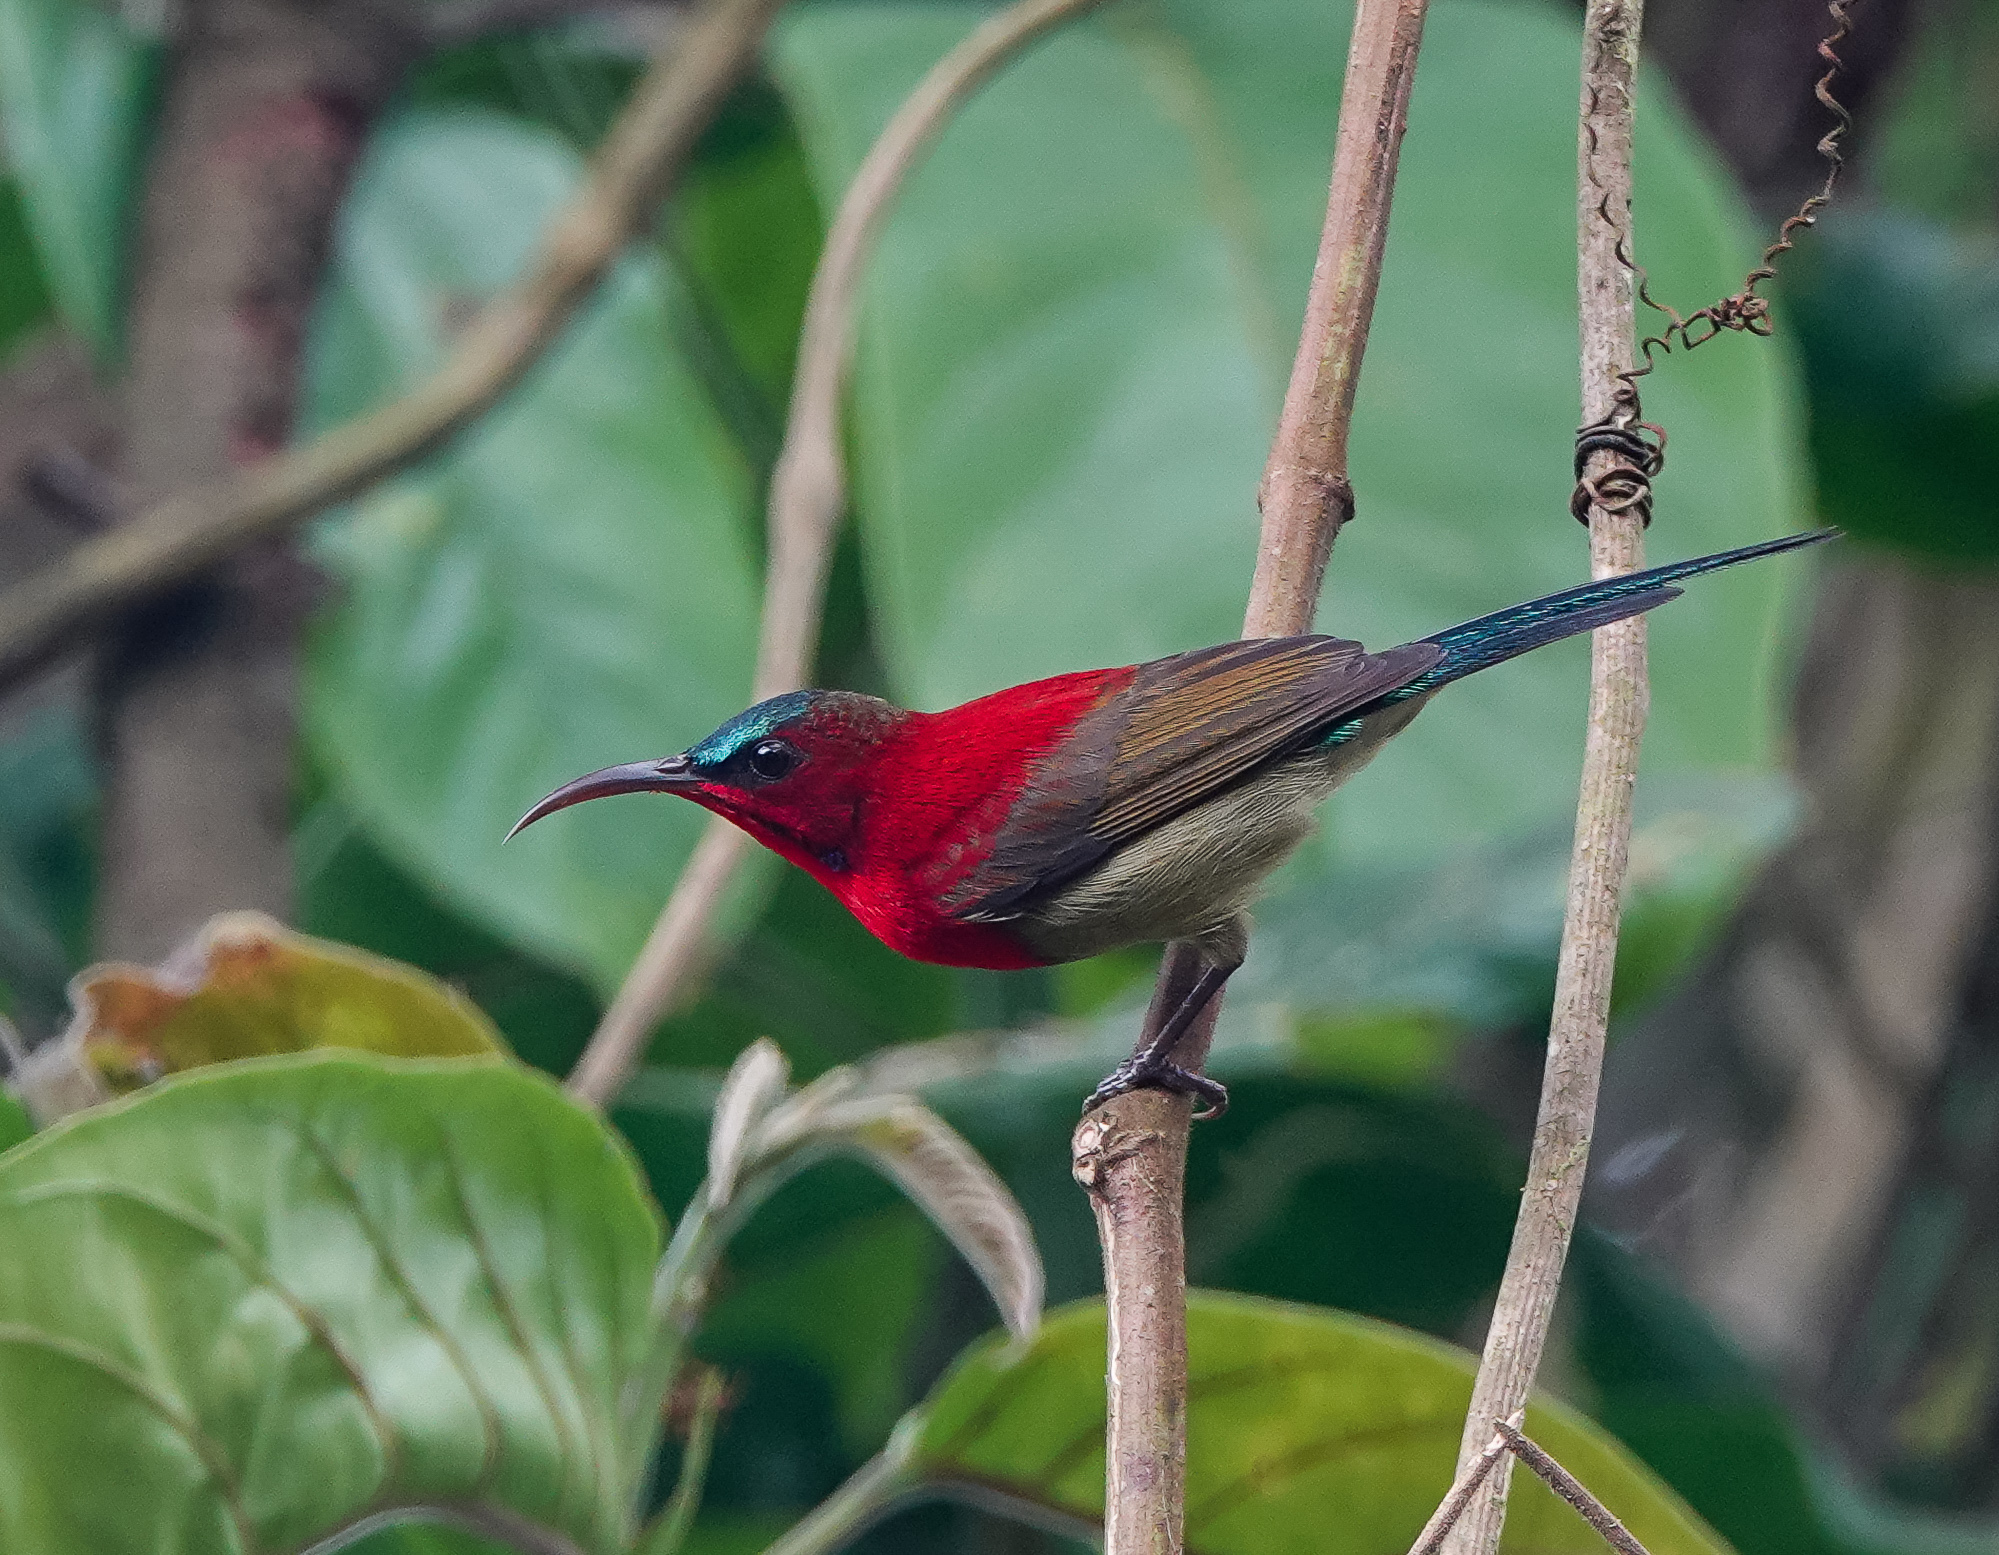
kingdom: Animalia
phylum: Chordata
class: Aves
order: Passeriformes
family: Nectariniidae
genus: Aethopyga
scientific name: Aethopyga siparaja
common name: Crimson sunbird
